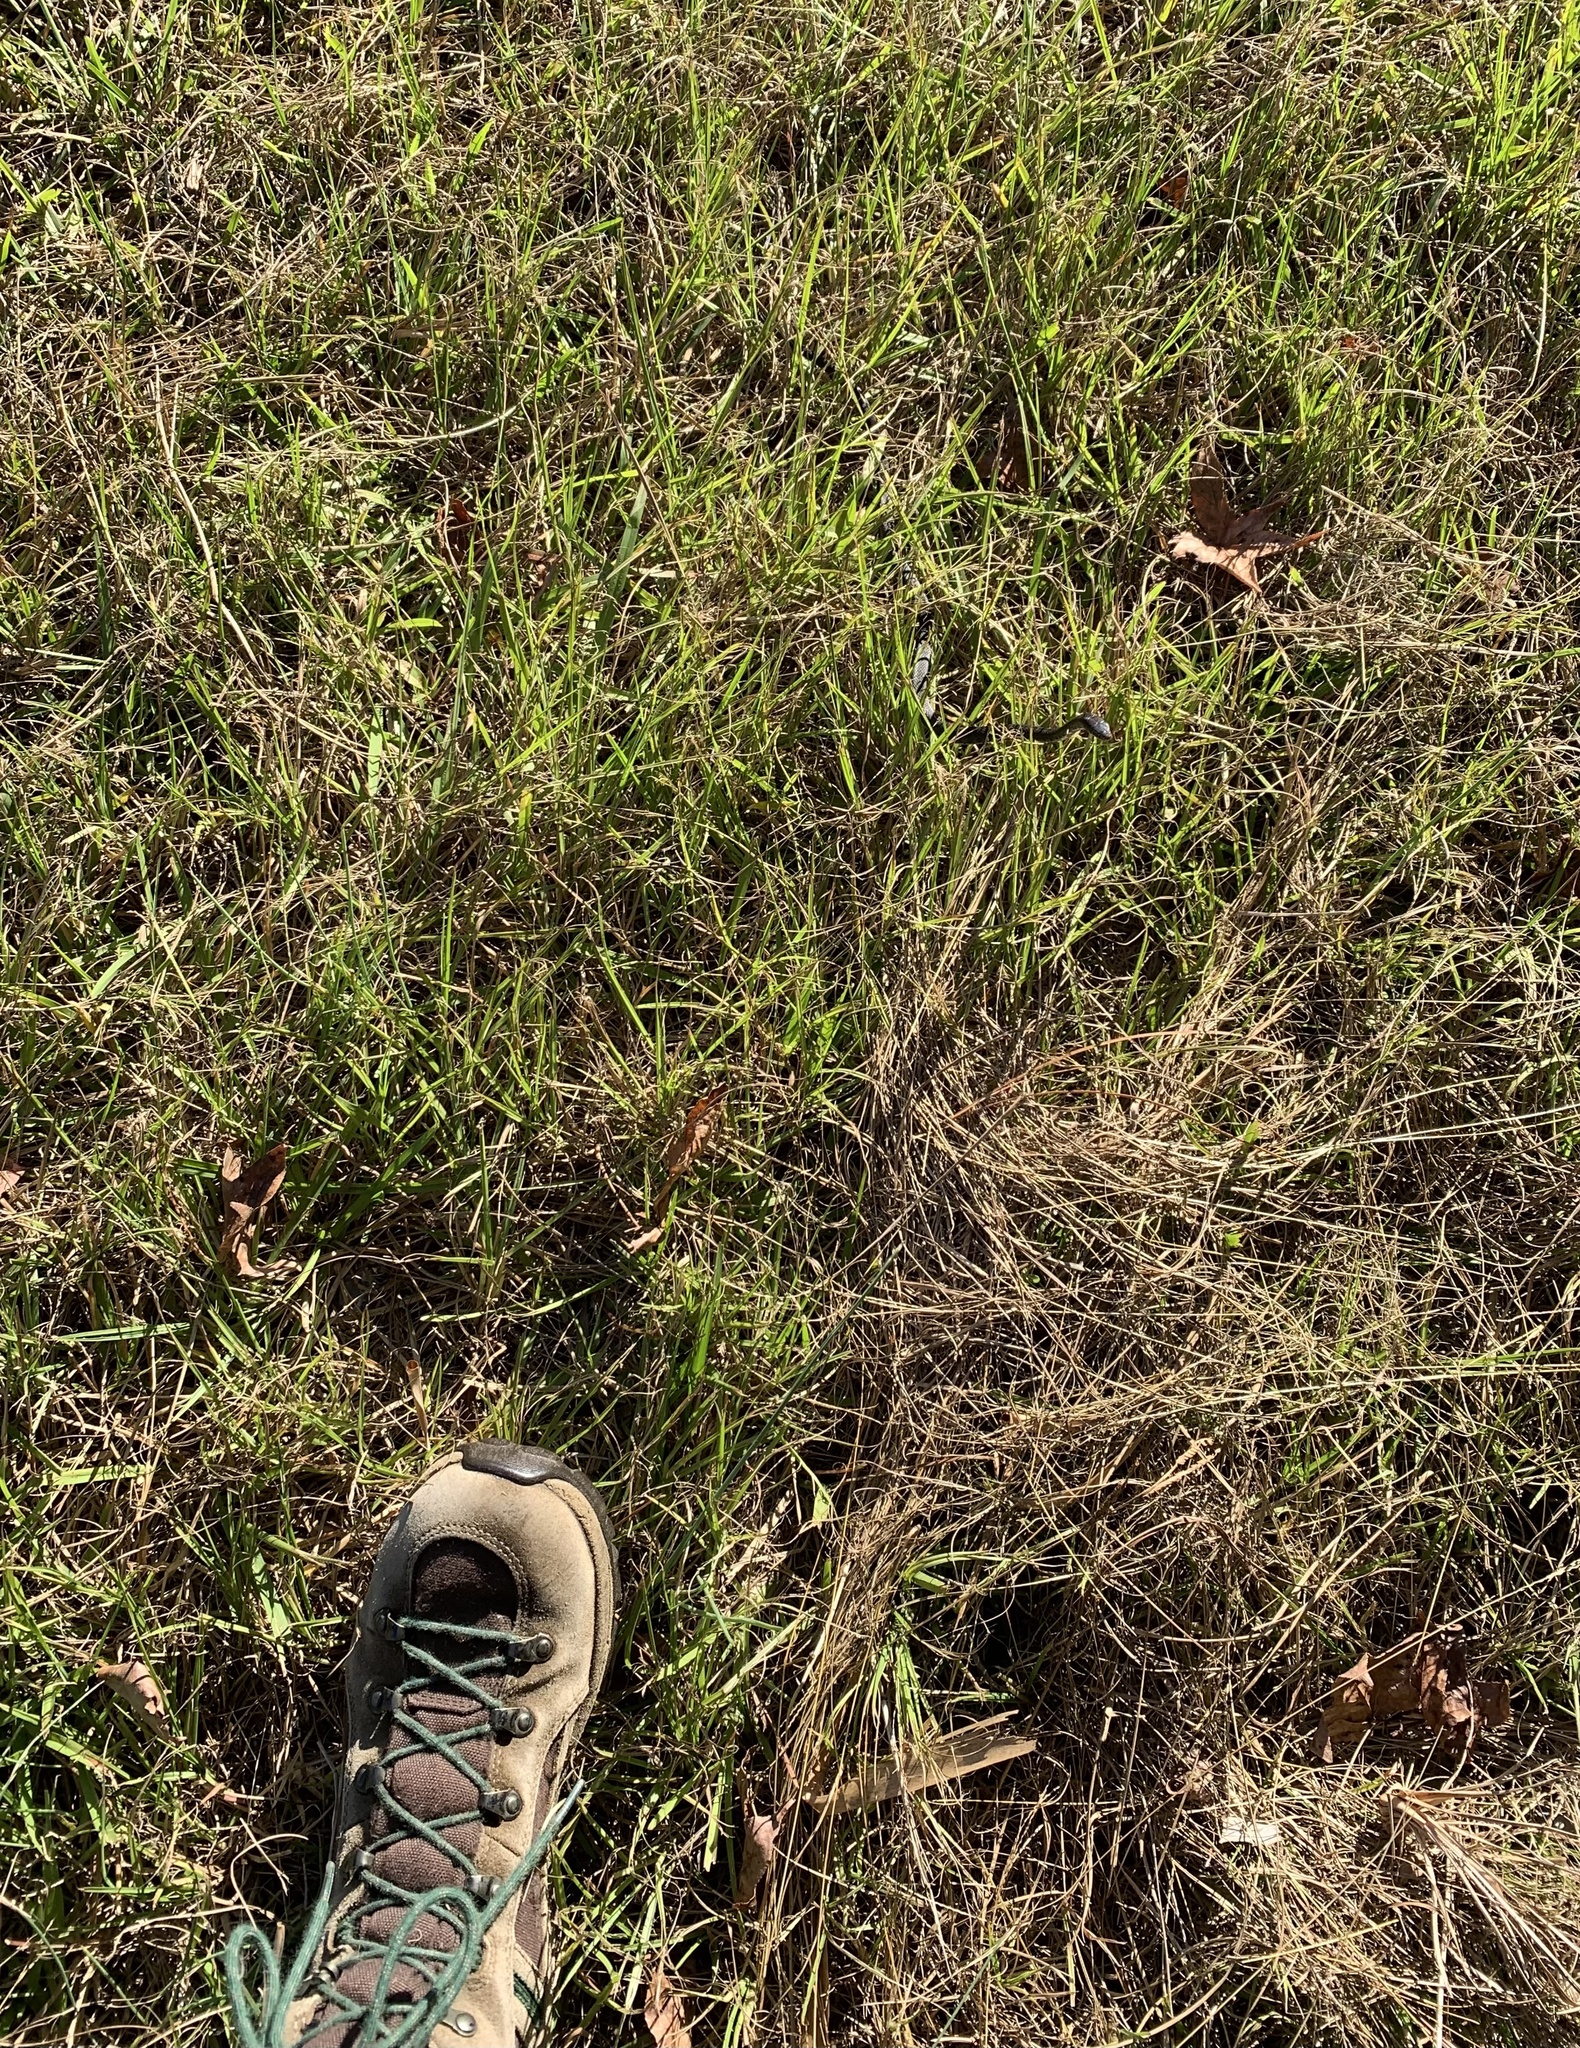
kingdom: Animalia
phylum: Chordata
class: Squamata
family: Colubridae
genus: Coluber
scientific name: Coluber constrictor
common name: Eastern racer
